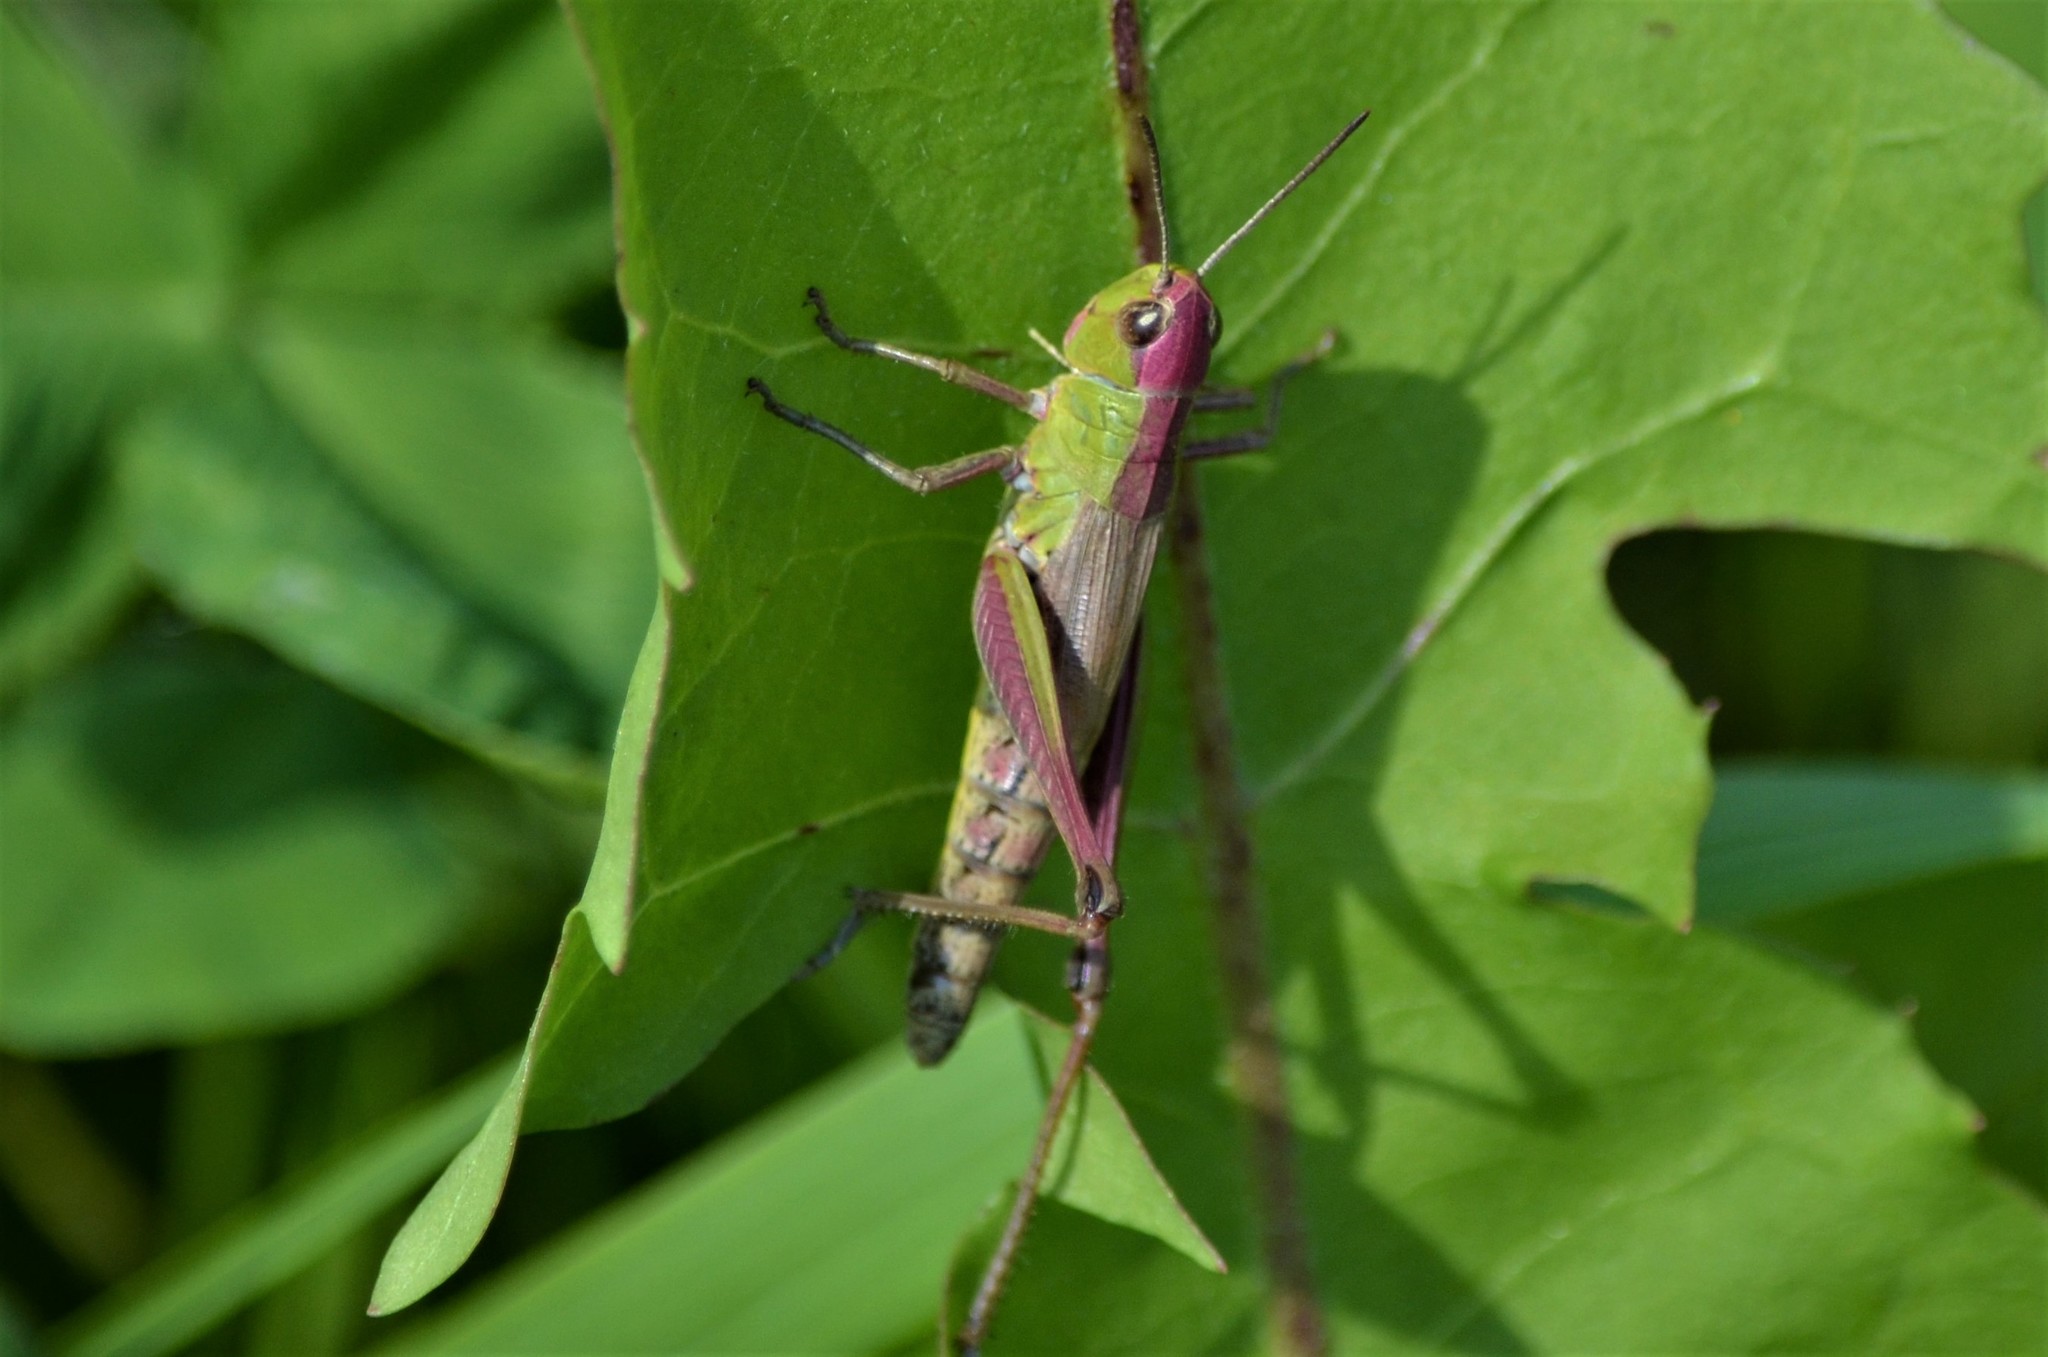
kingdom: Animalia
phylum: Arthropoda
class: Insecta
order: Orthoptera
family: Acrididae
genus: Pseudochorthippus
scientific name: Pseudochorthippus parallelus
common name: Meadow grasshopper
